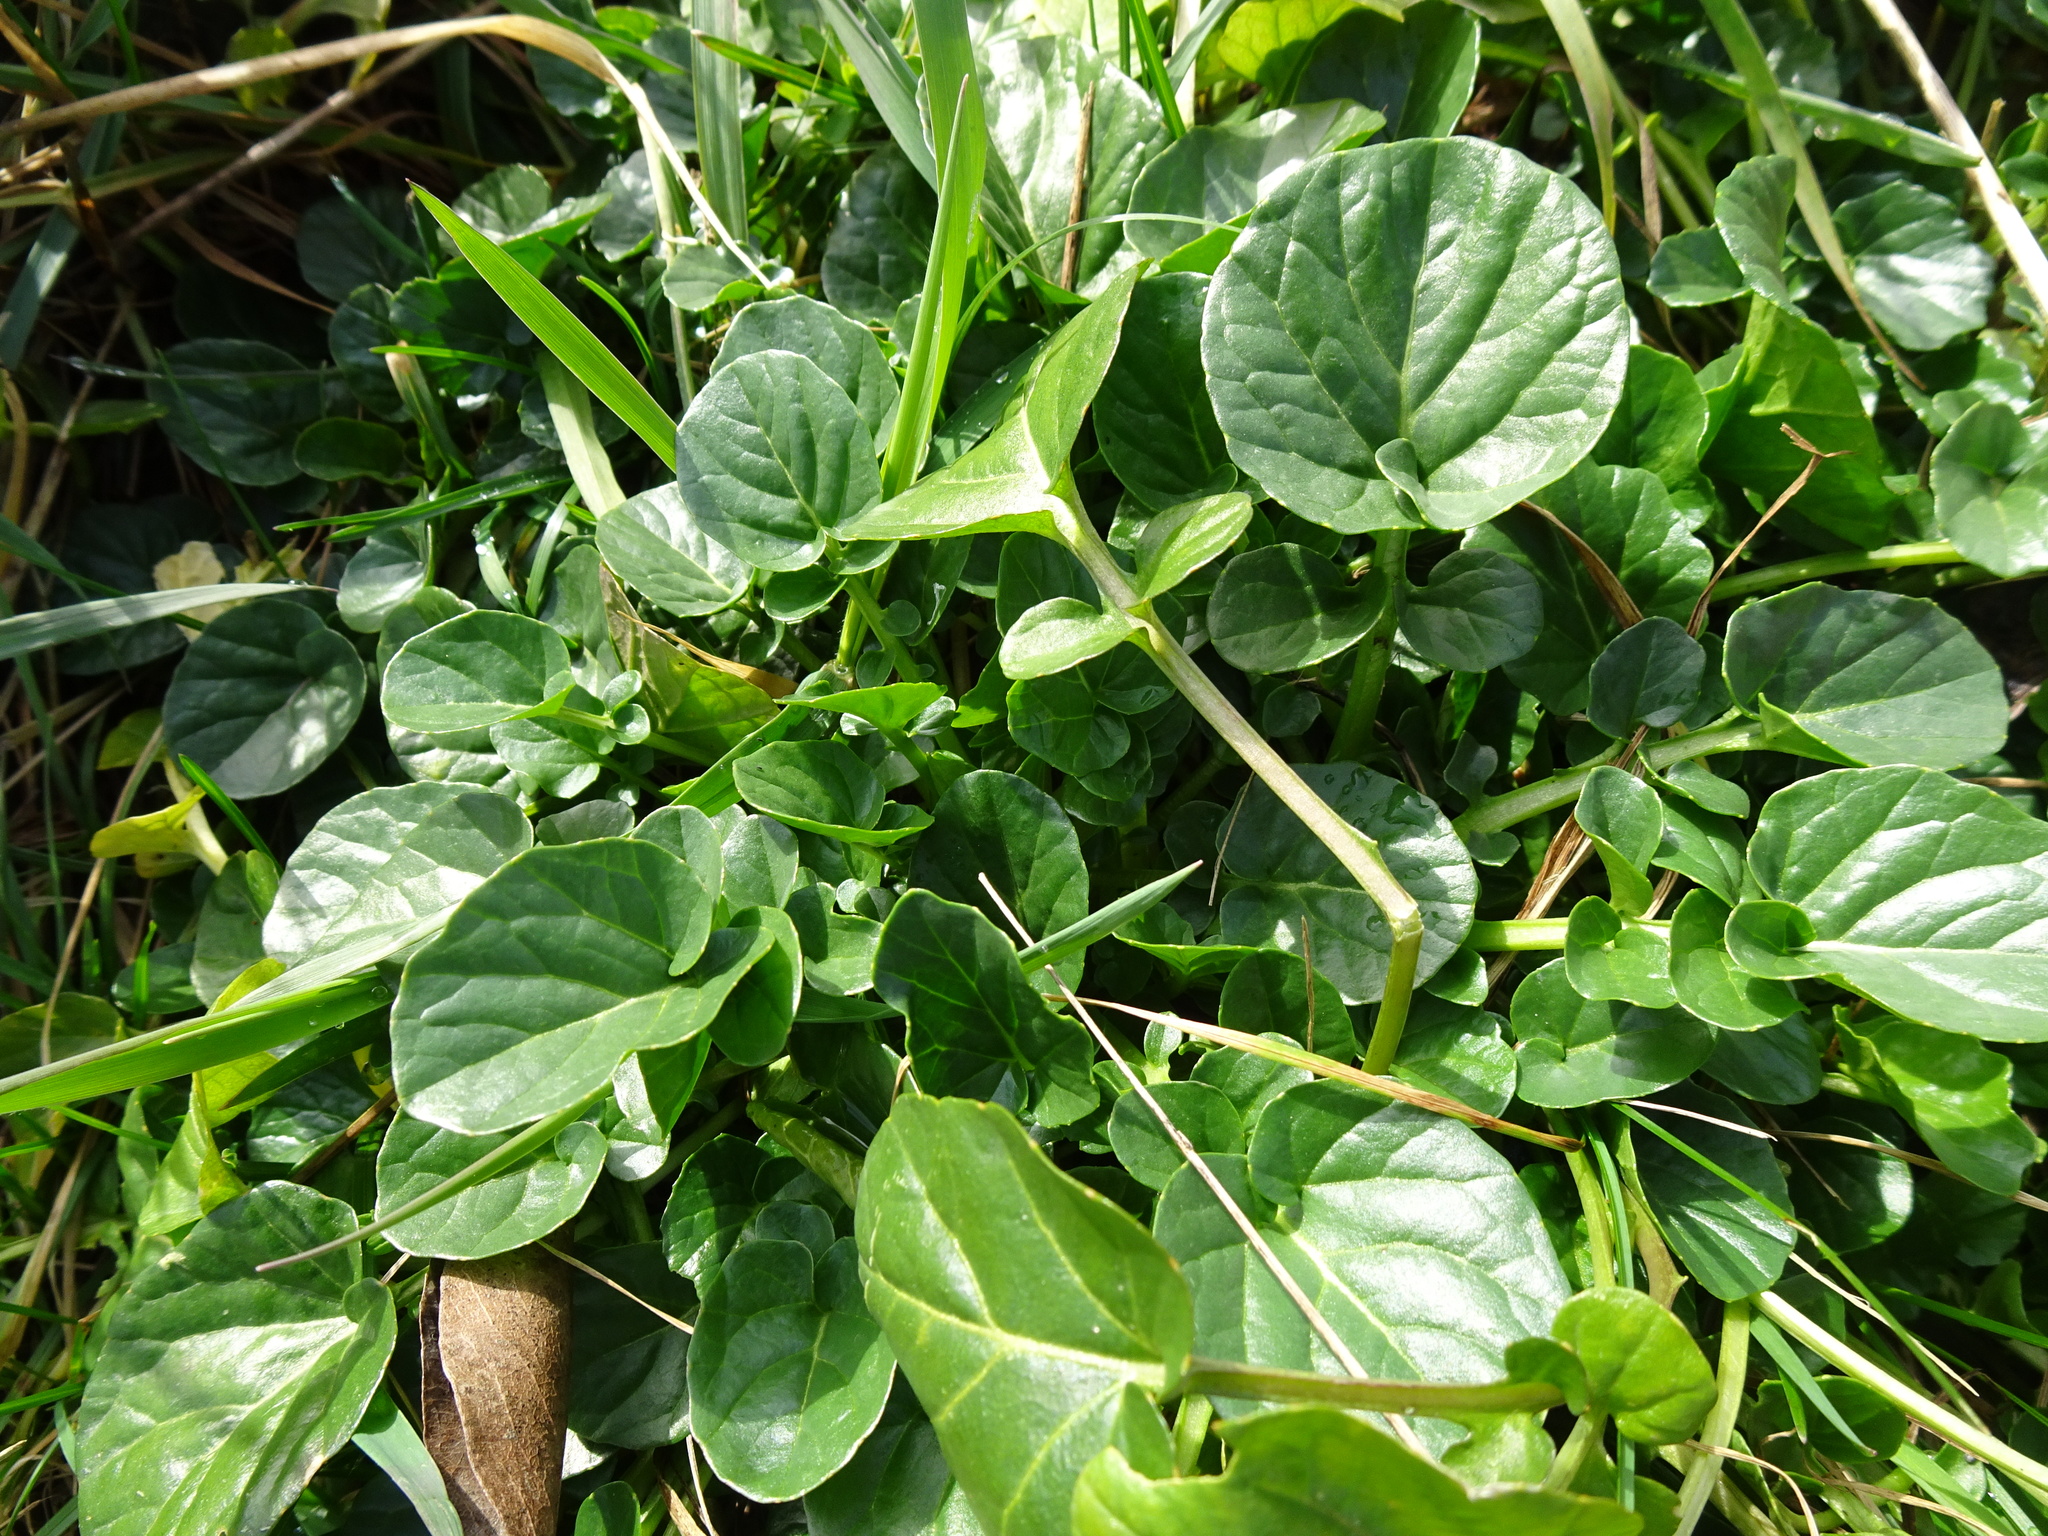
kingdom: Plantae
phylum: Tracheophyta
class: Magnoliopsida
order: Brassicales
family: Brassicaceae
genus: Barbarea
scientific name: Barbarea vulgaris
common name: Cressy-greens
